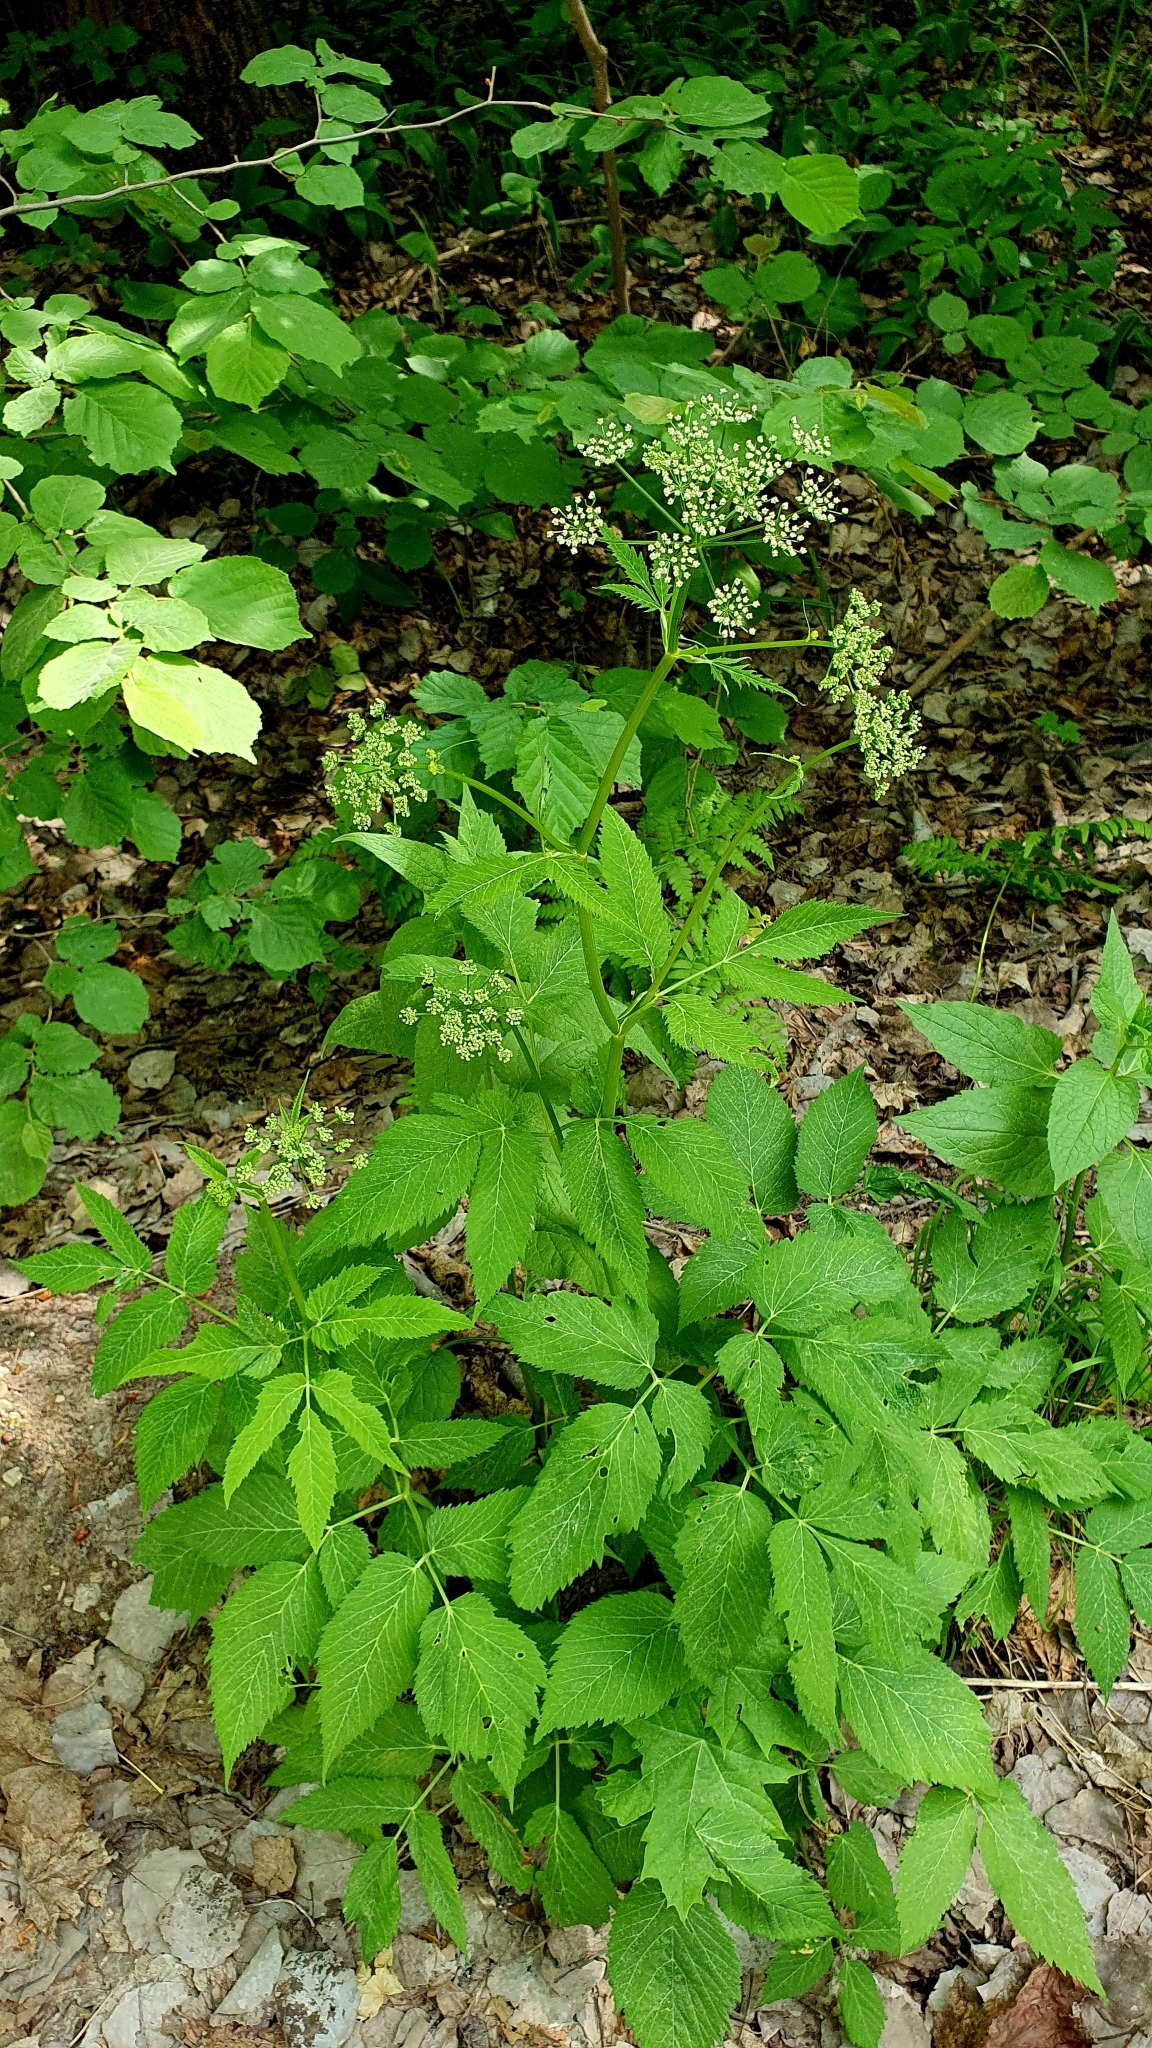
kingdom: Plantae
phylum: Tracheophyta
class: Magnoliopsida
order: Apiales
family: Apiaceae
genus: Aegopodium
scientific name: Aegopodium podagraria
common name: Ground-elder
